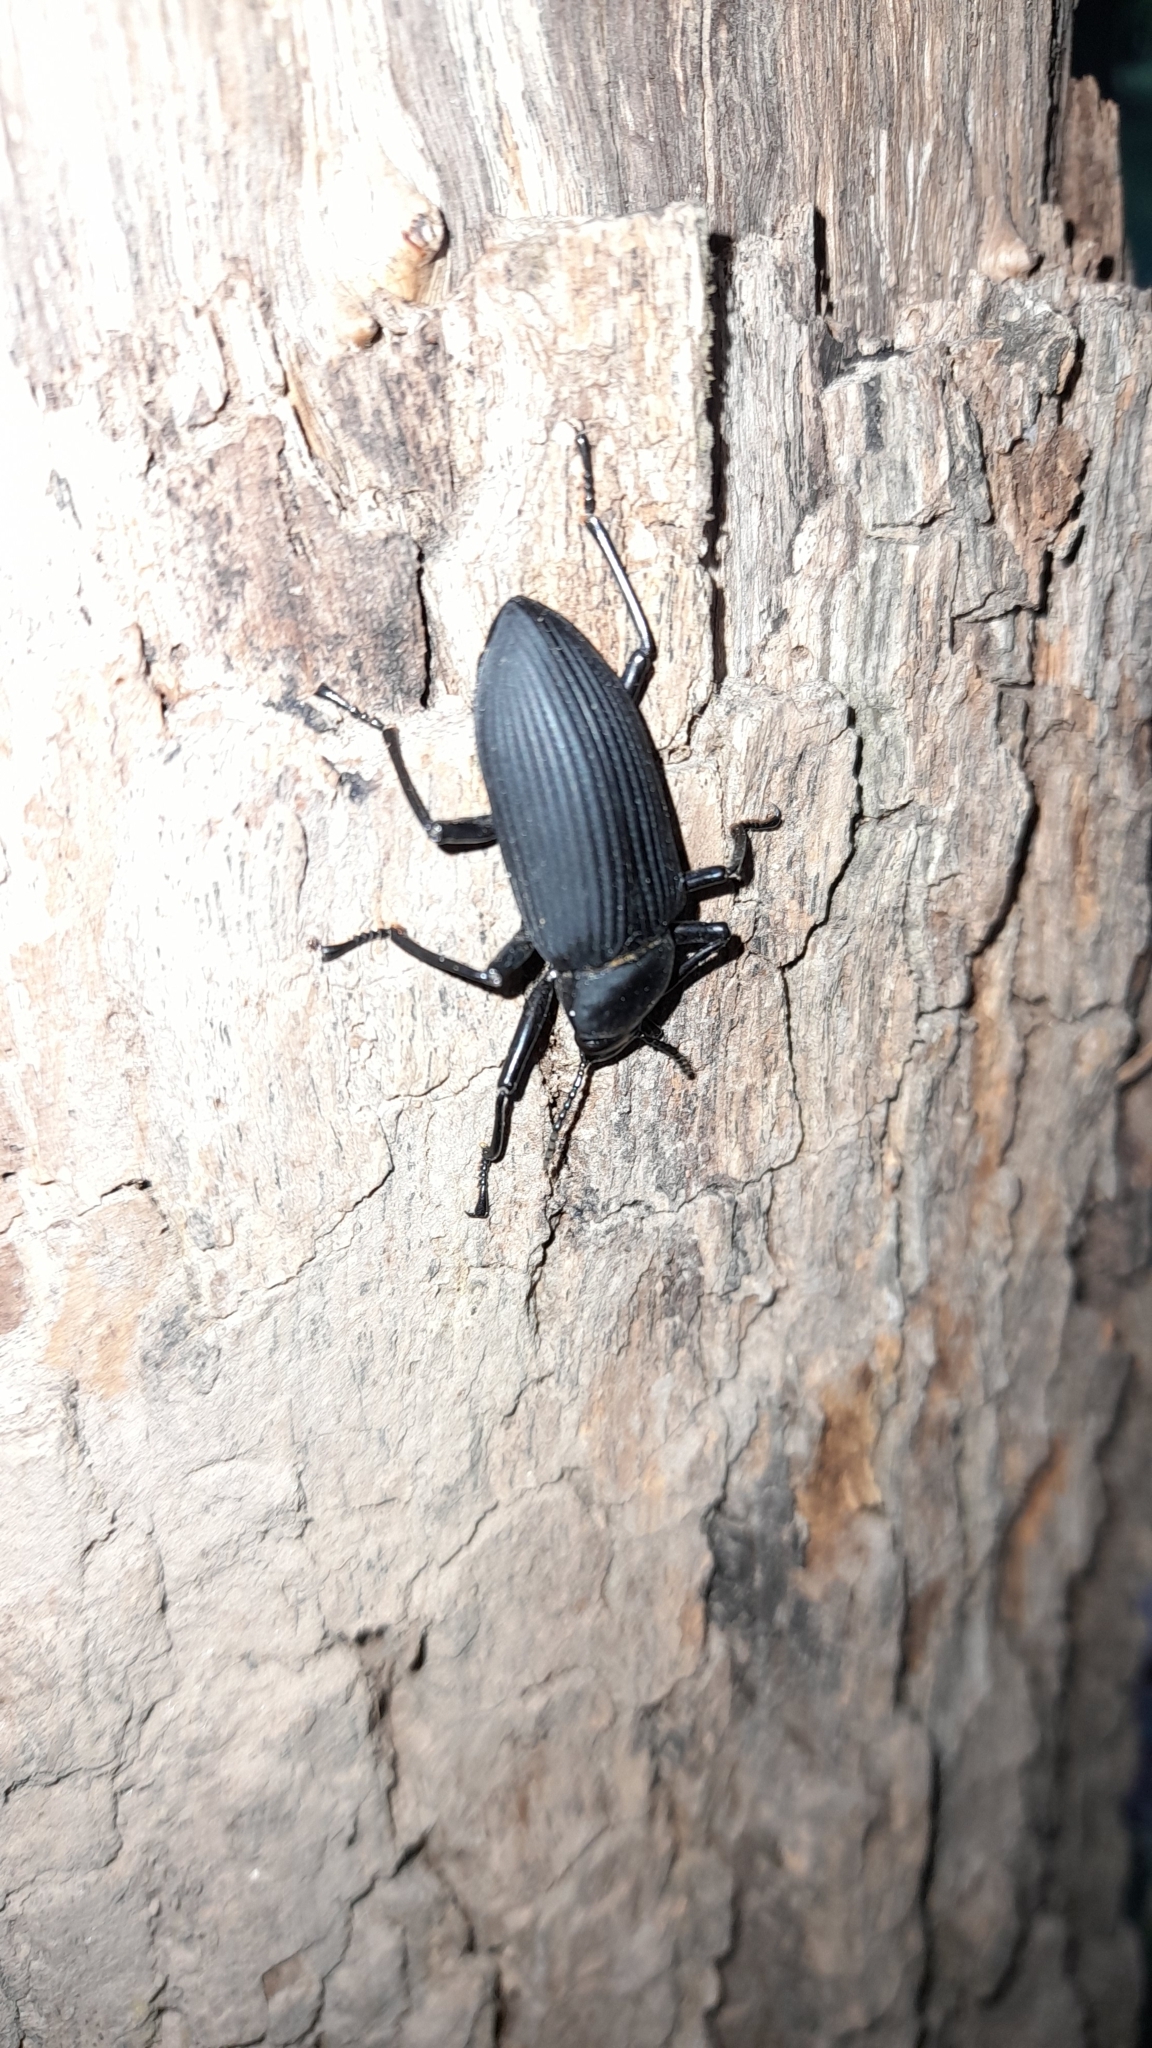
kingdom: Animalia
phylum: Arthropoda
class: Insecta
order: Coleoptera
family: Tenebrionidae
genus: Mylaris
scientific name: Mylaris gigas
